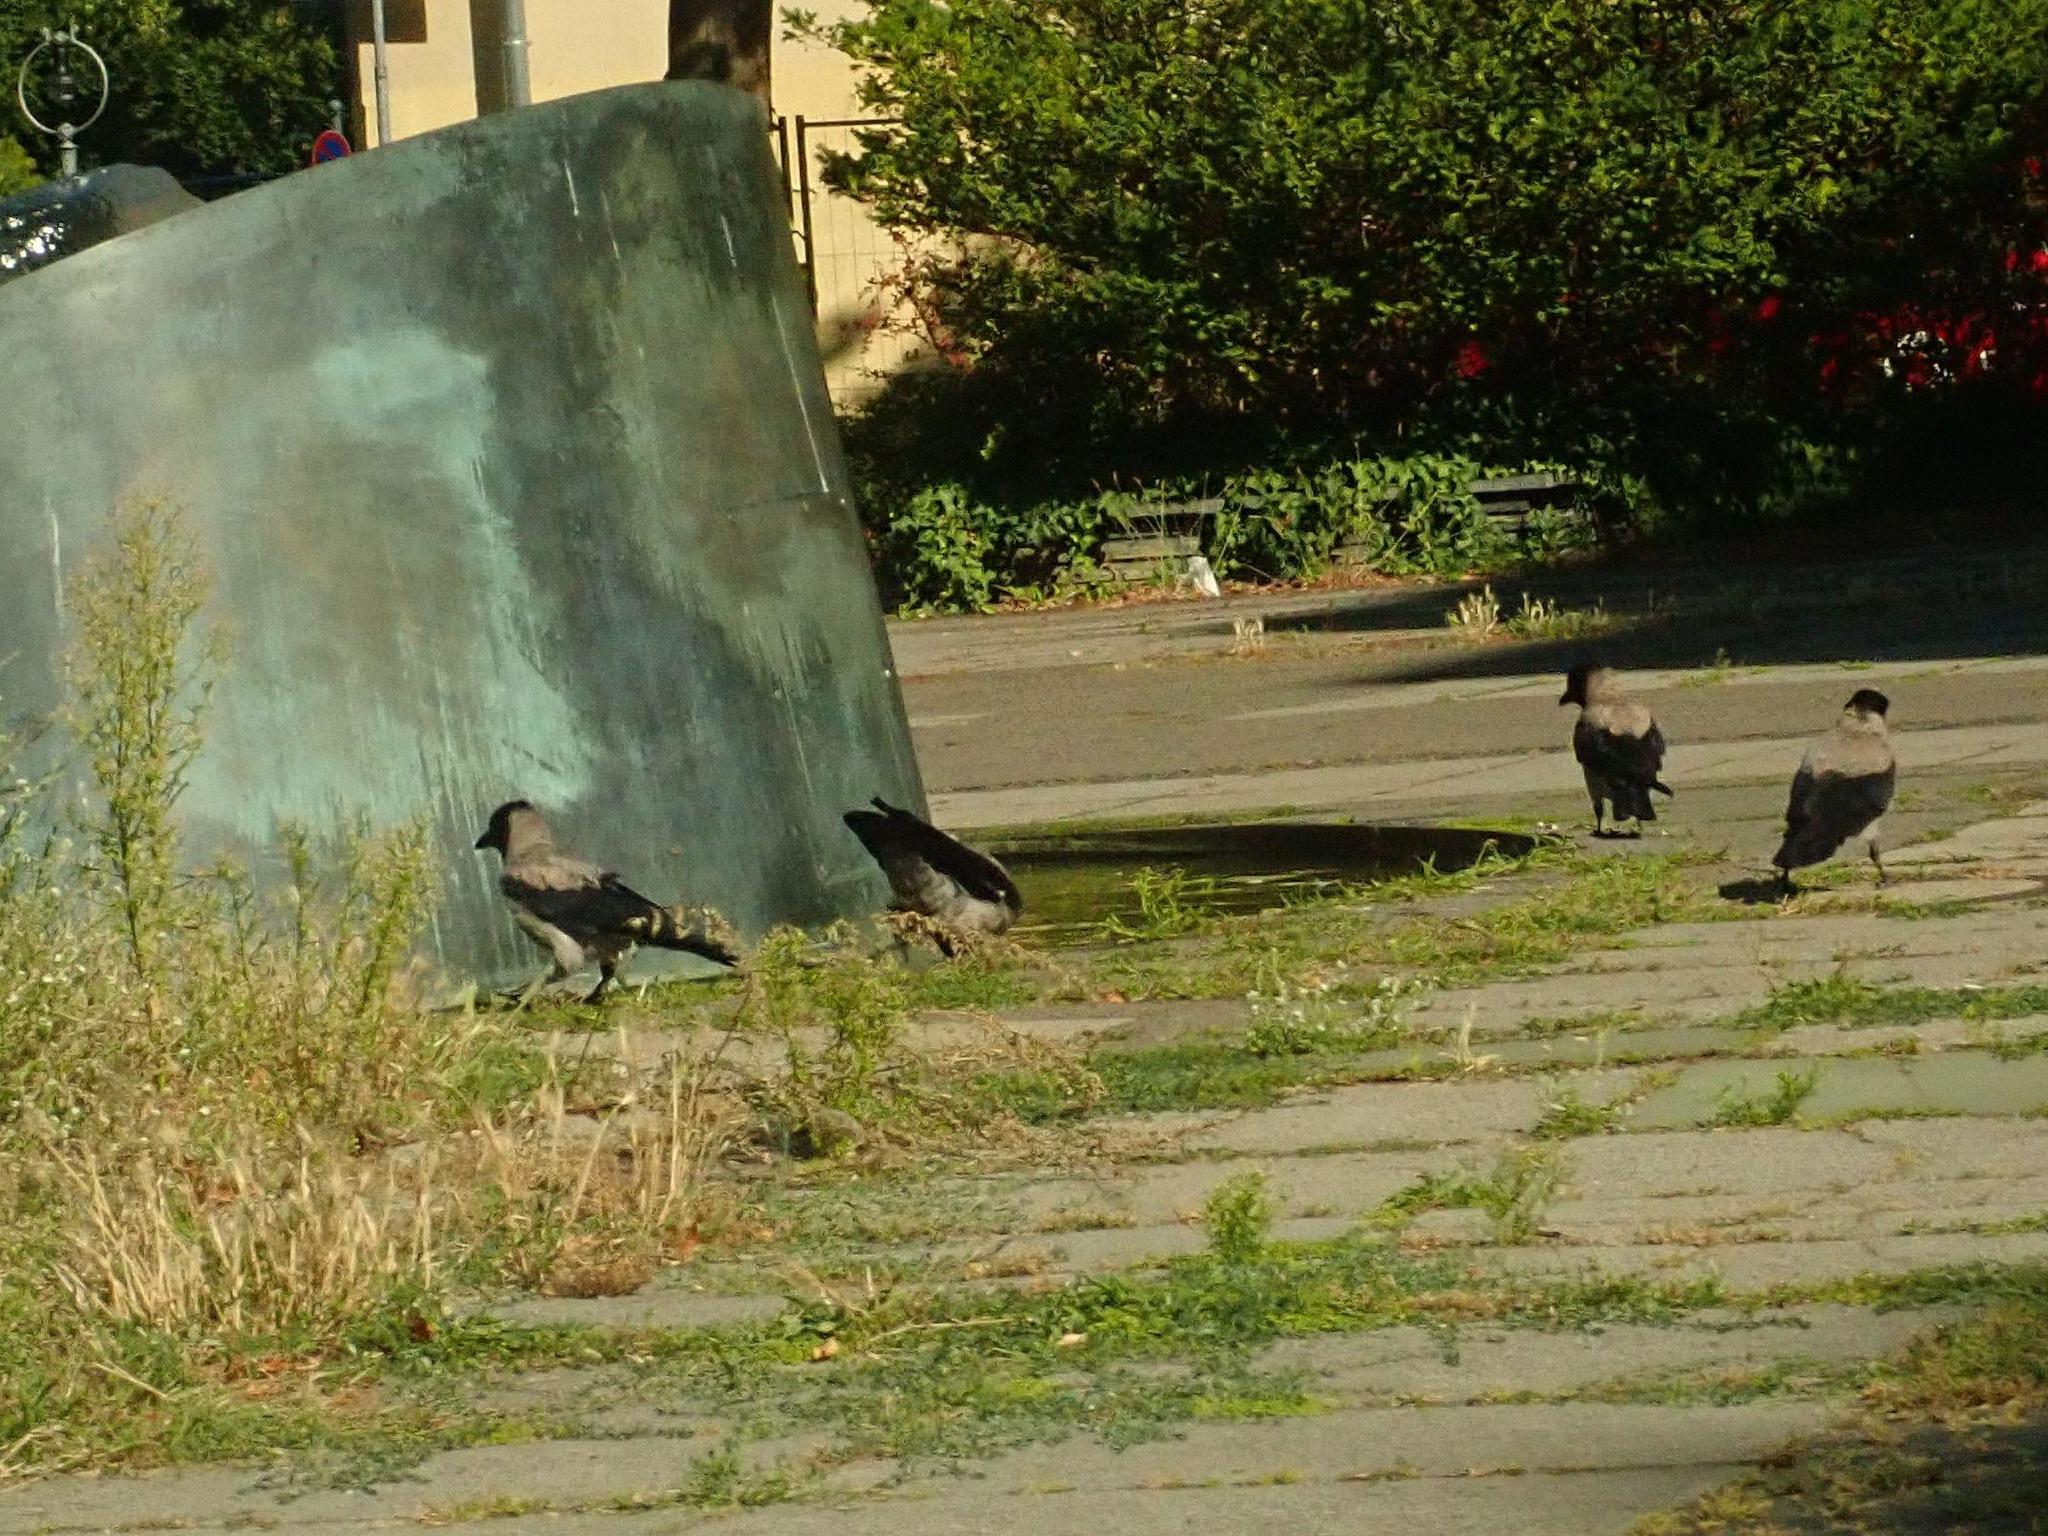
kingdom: Animalia
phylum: Chordata
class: Aves
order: Passeriformes
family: Corvidae
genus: Corvus
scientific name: Corvus cornix
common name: Hooded crow
